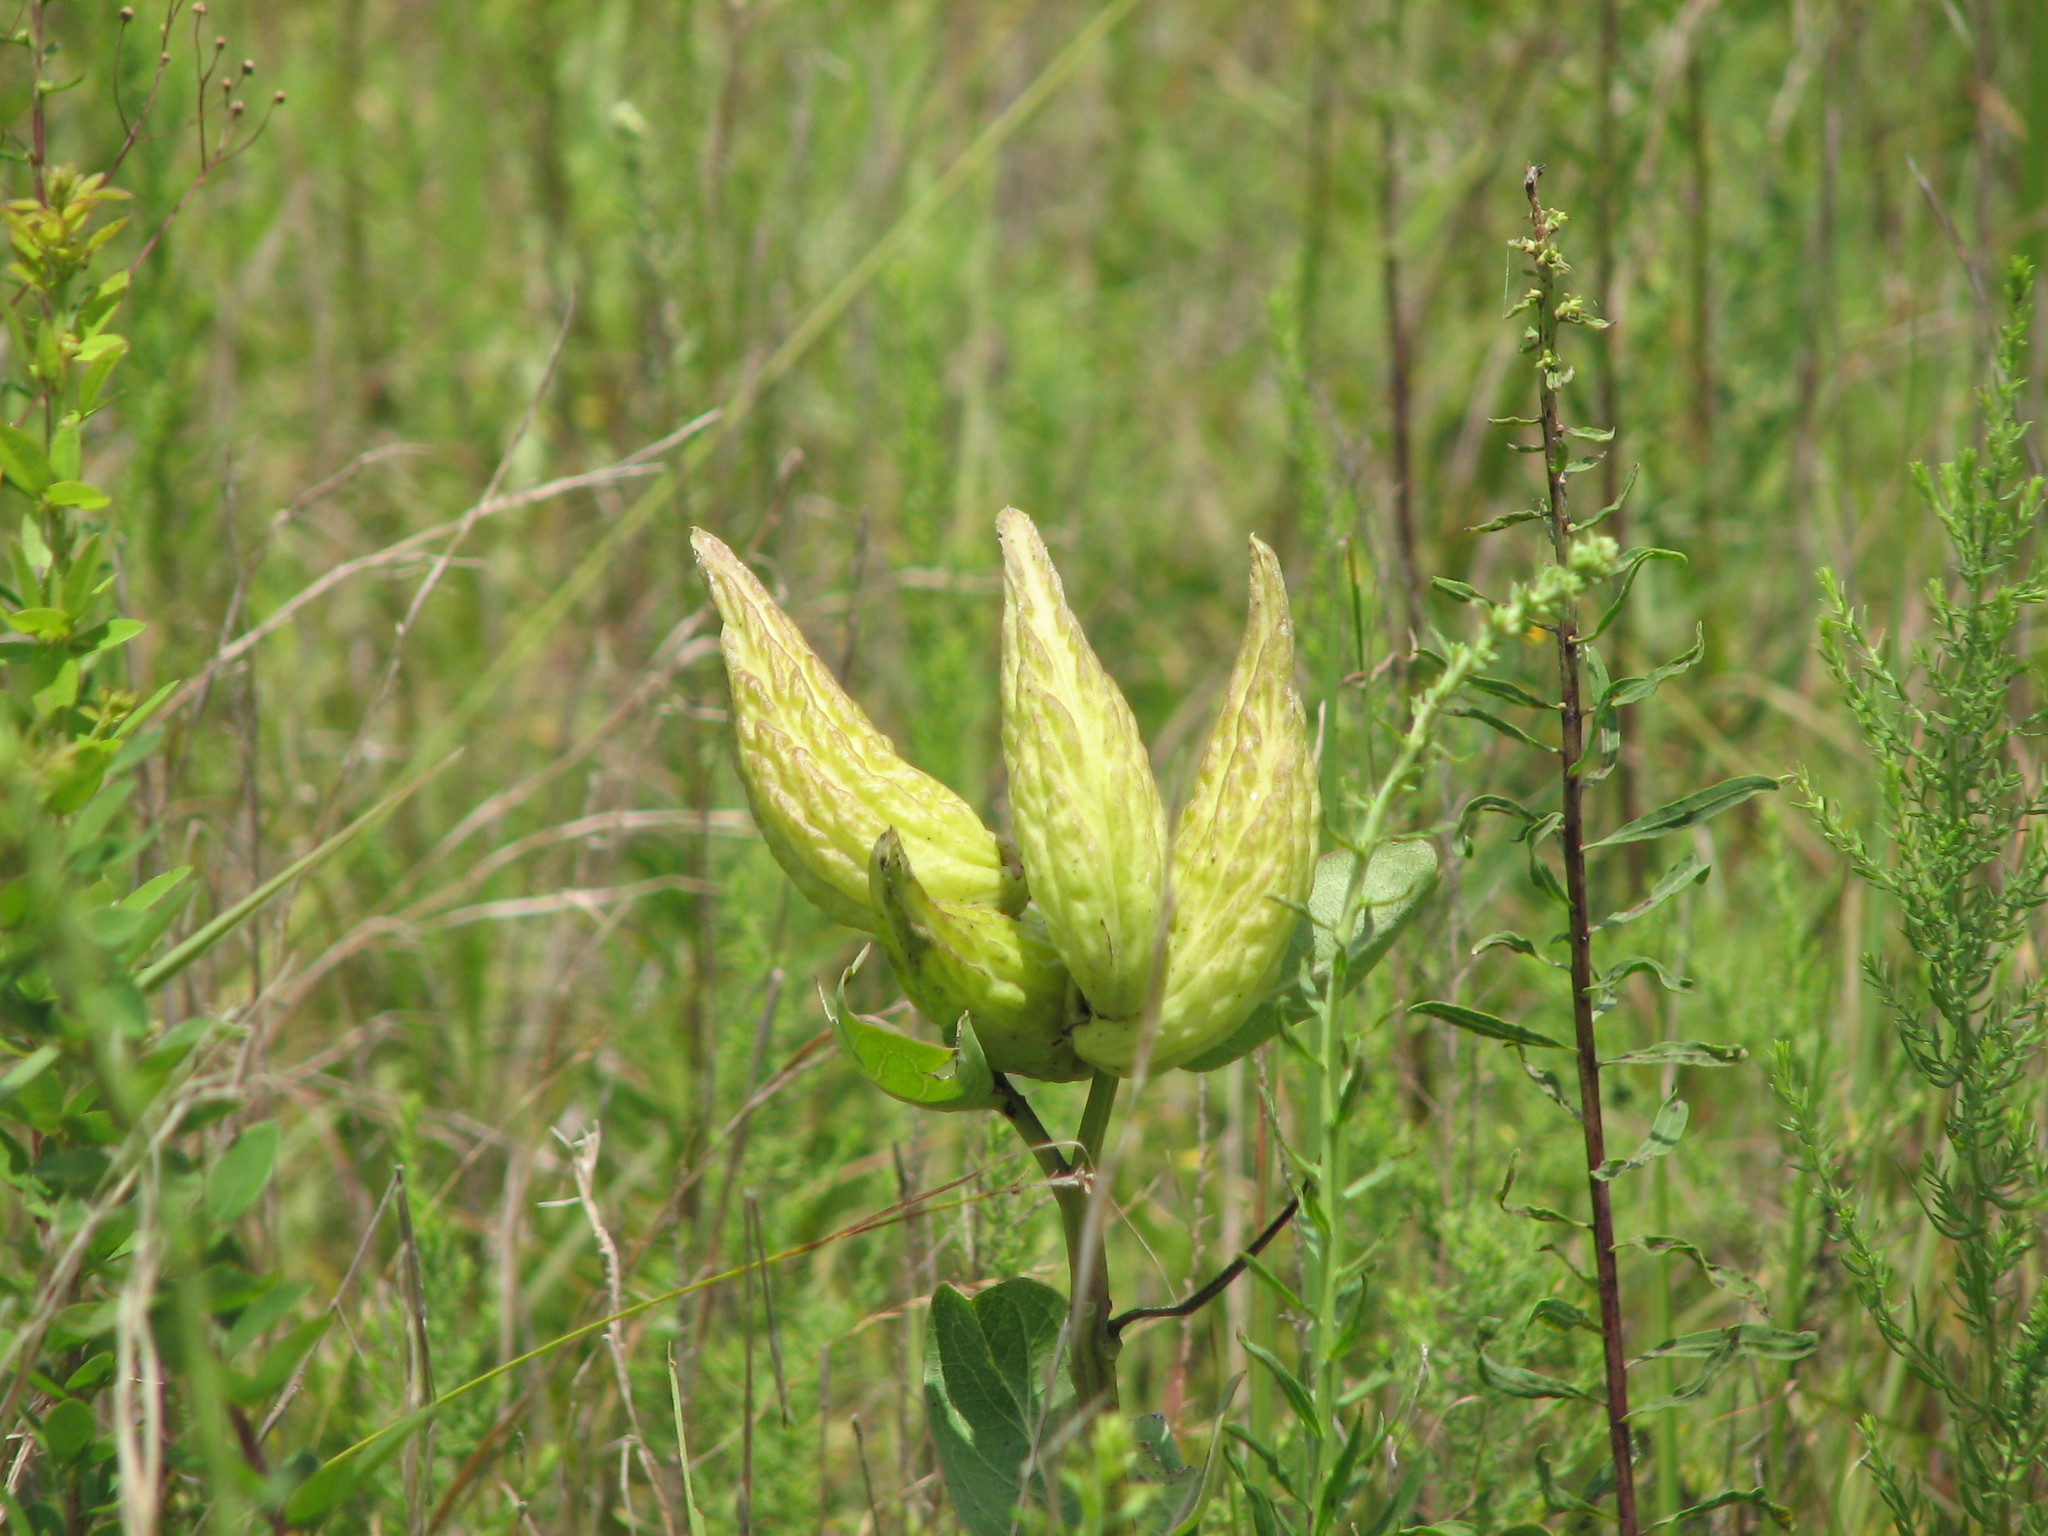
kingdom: Plantae
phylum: Tracheophyta
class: Magnoliopsida
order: Gentianales
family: Apocynaceae
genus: Asclepias
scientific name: Asclepias viridis
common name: Antelope-horns
